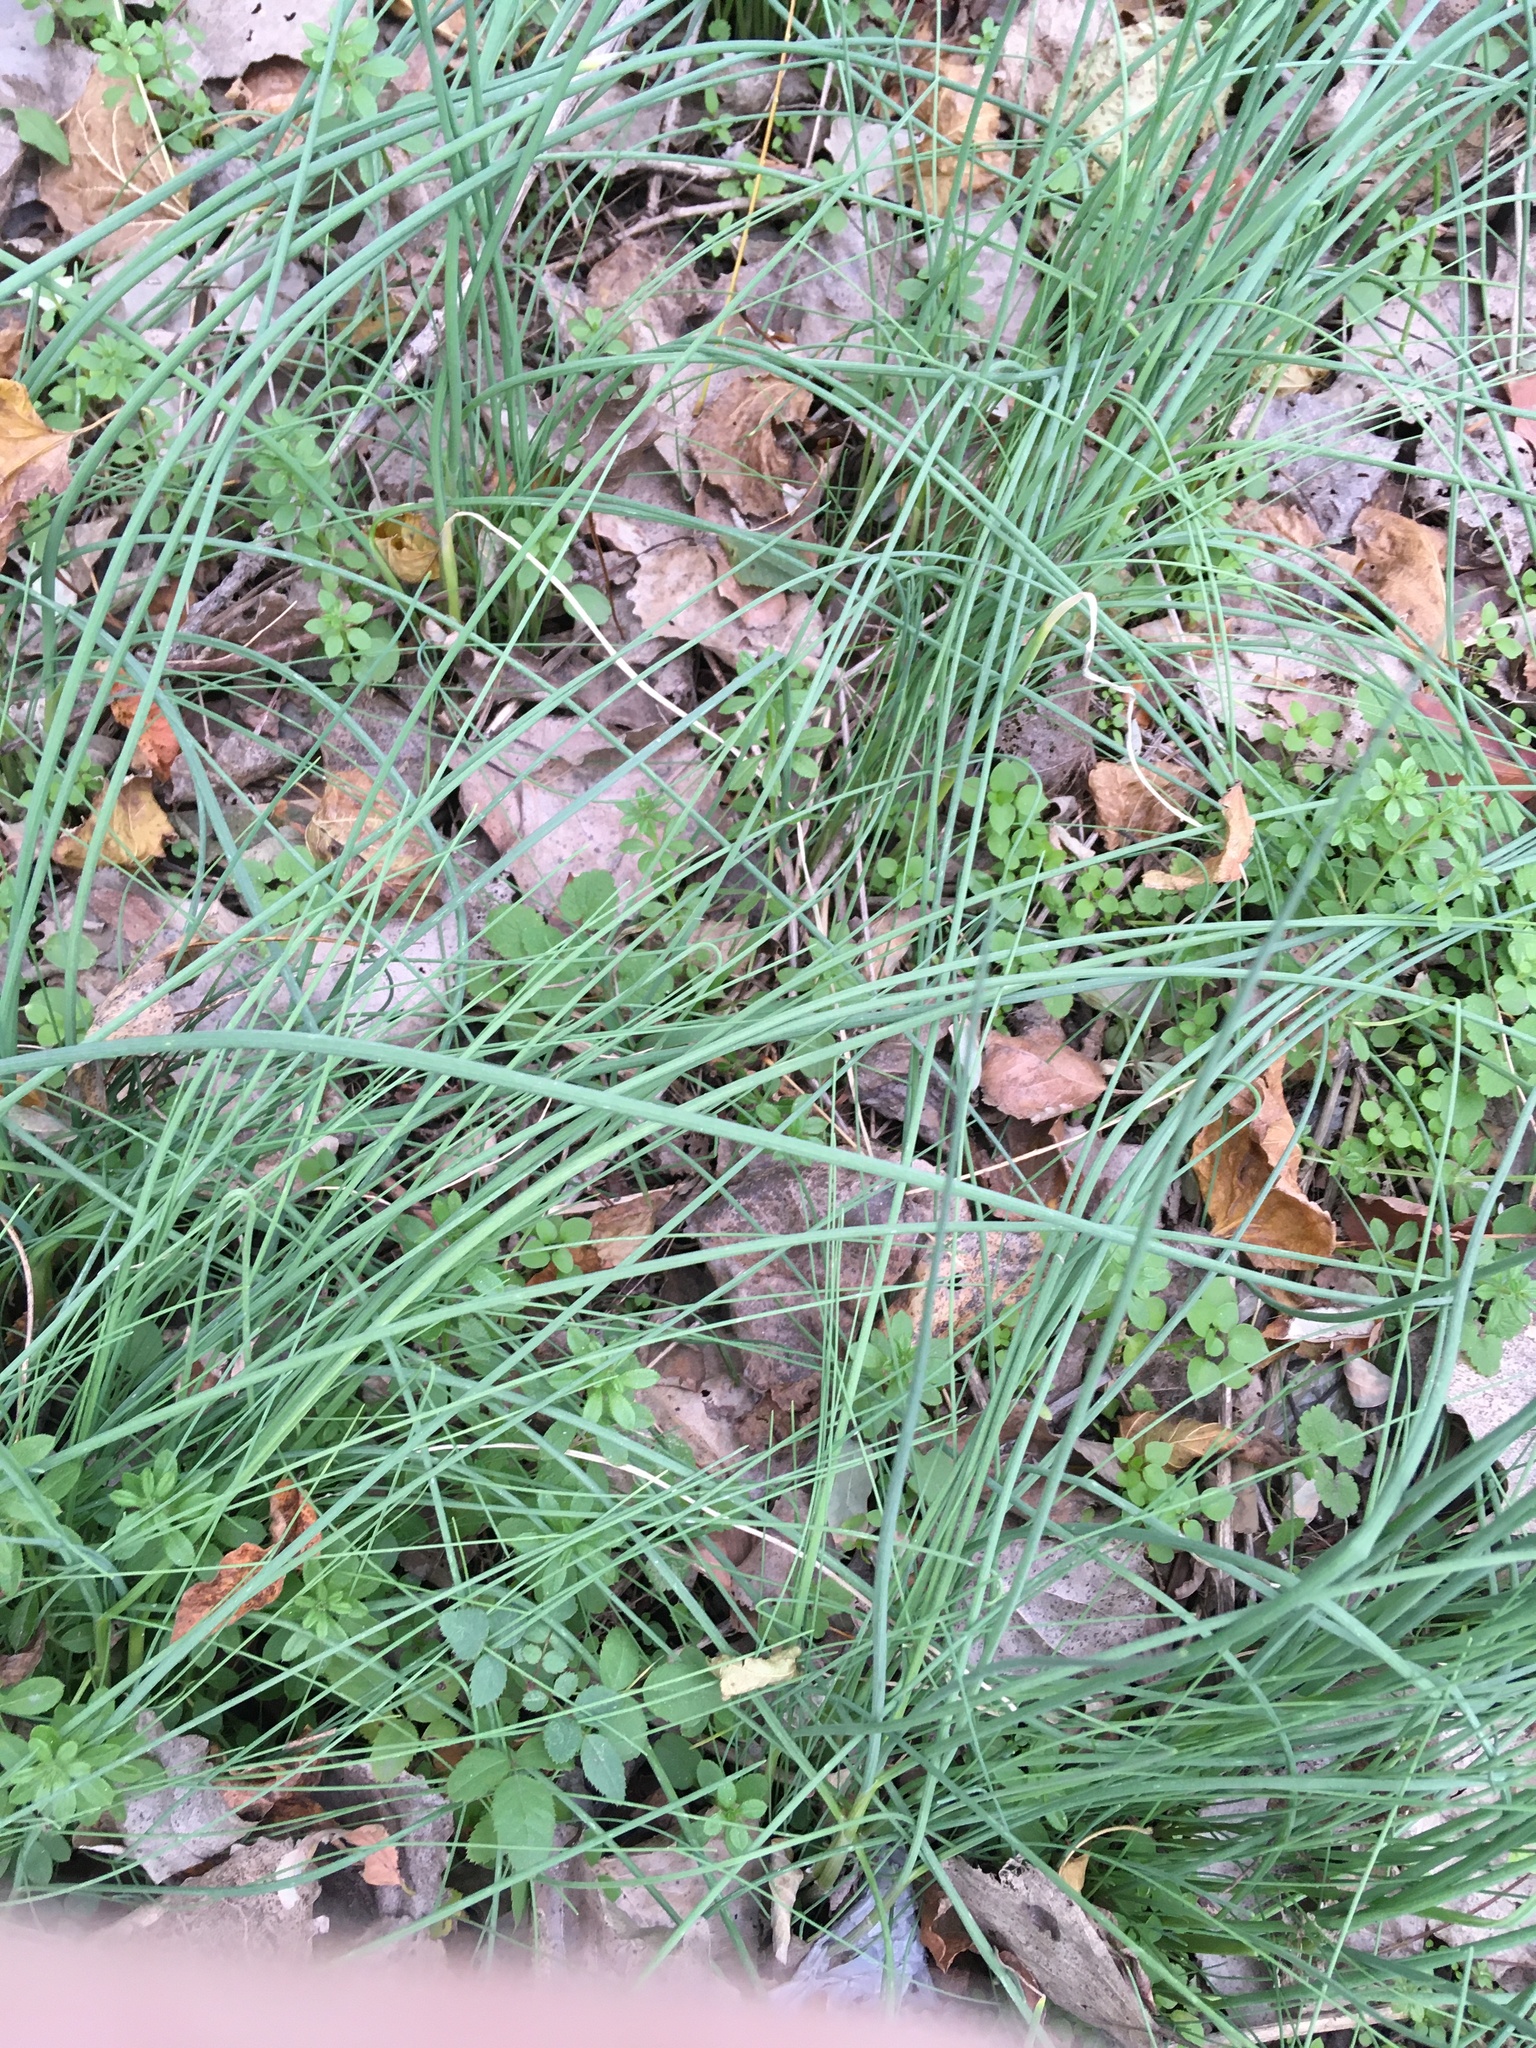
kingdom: Plantae
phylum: Tracheophyta
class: Liliopsida
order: Asparagales
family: Amaryllidaceae
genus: Allium
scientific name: Allium vineale
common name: Crow garlic
